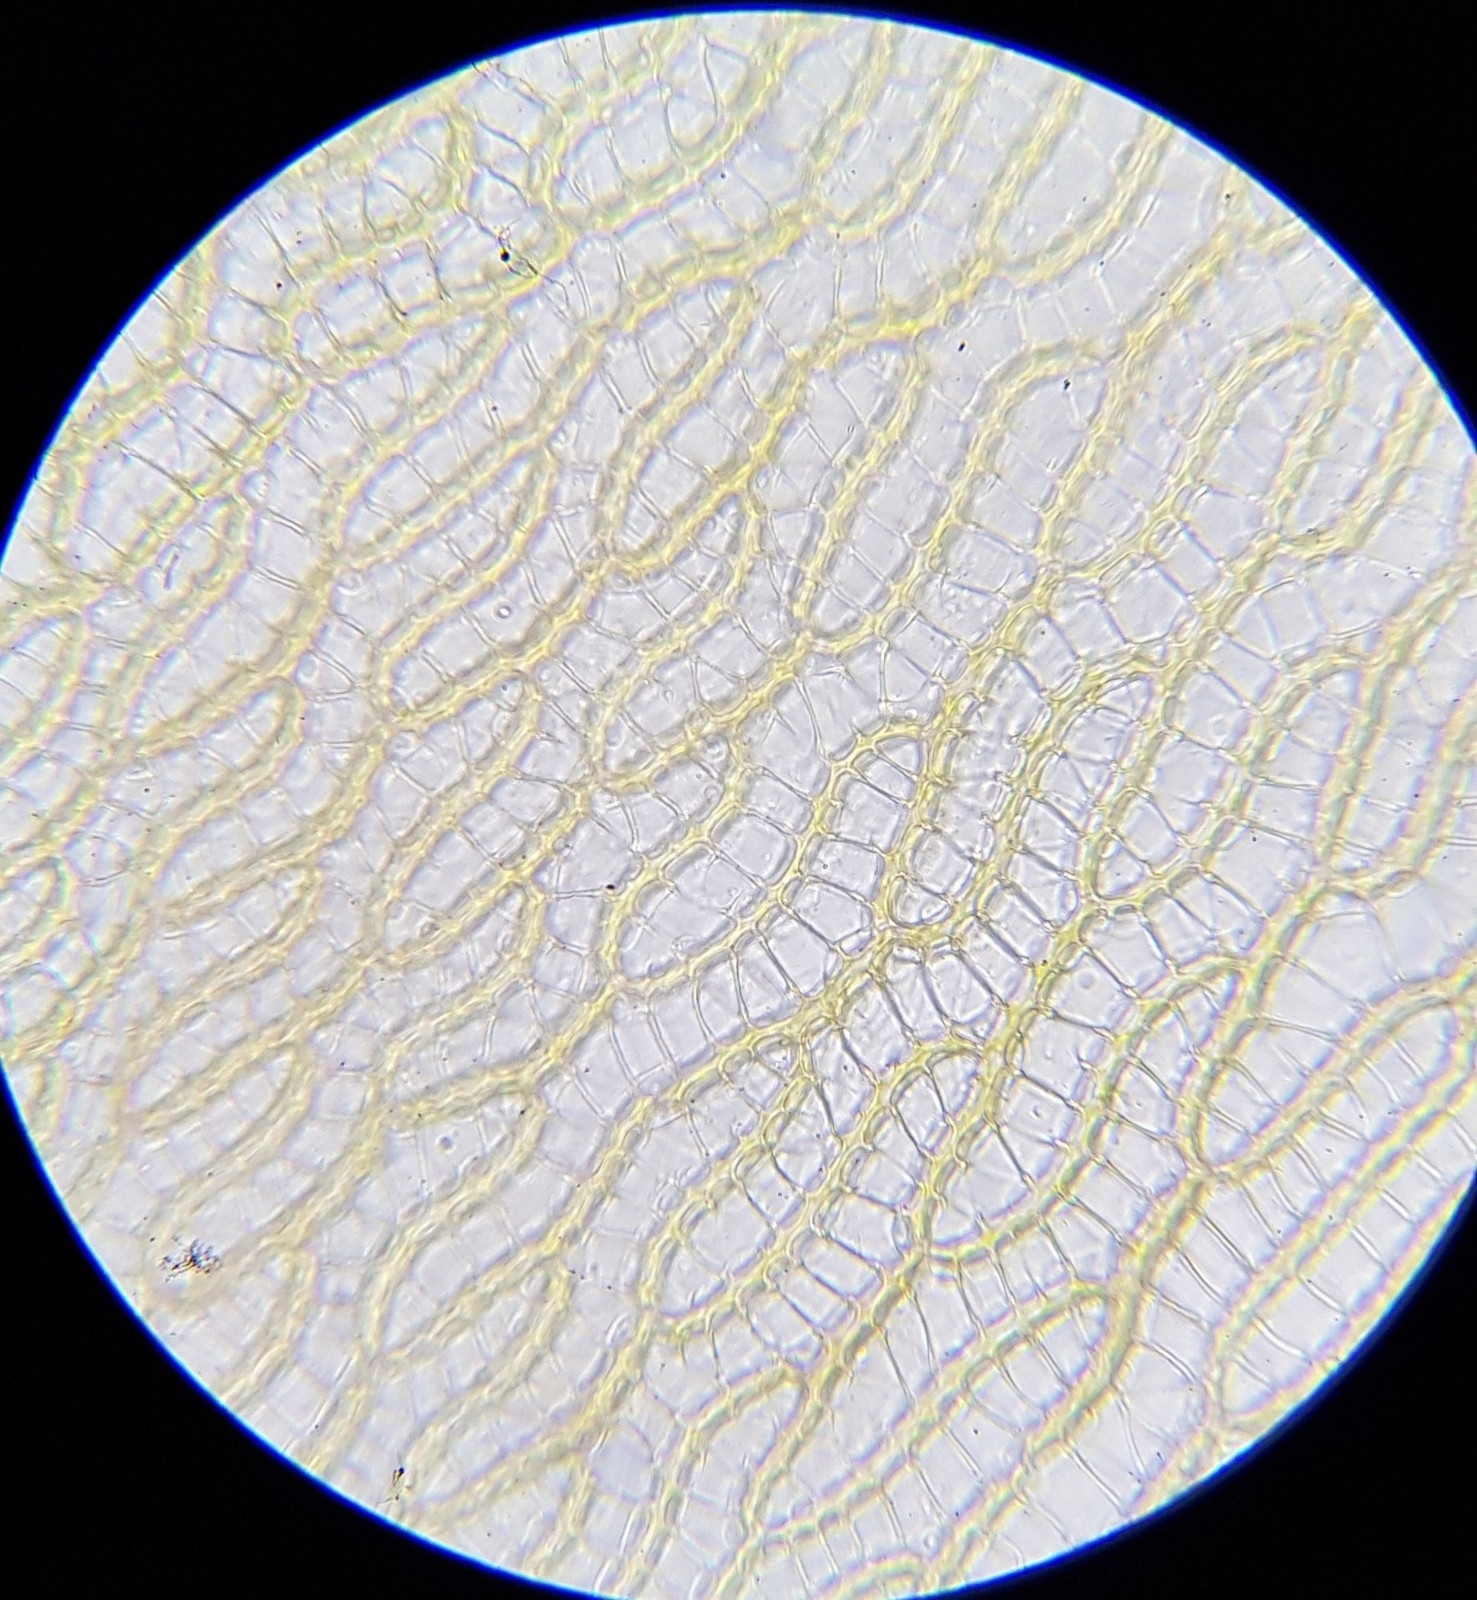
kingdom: Plantae
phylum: Bryophyta
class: Sphagnopsida
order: Sphagnales
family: Sphagnaceae
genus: Sphagnum
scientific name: Sphagnum denticulatum
